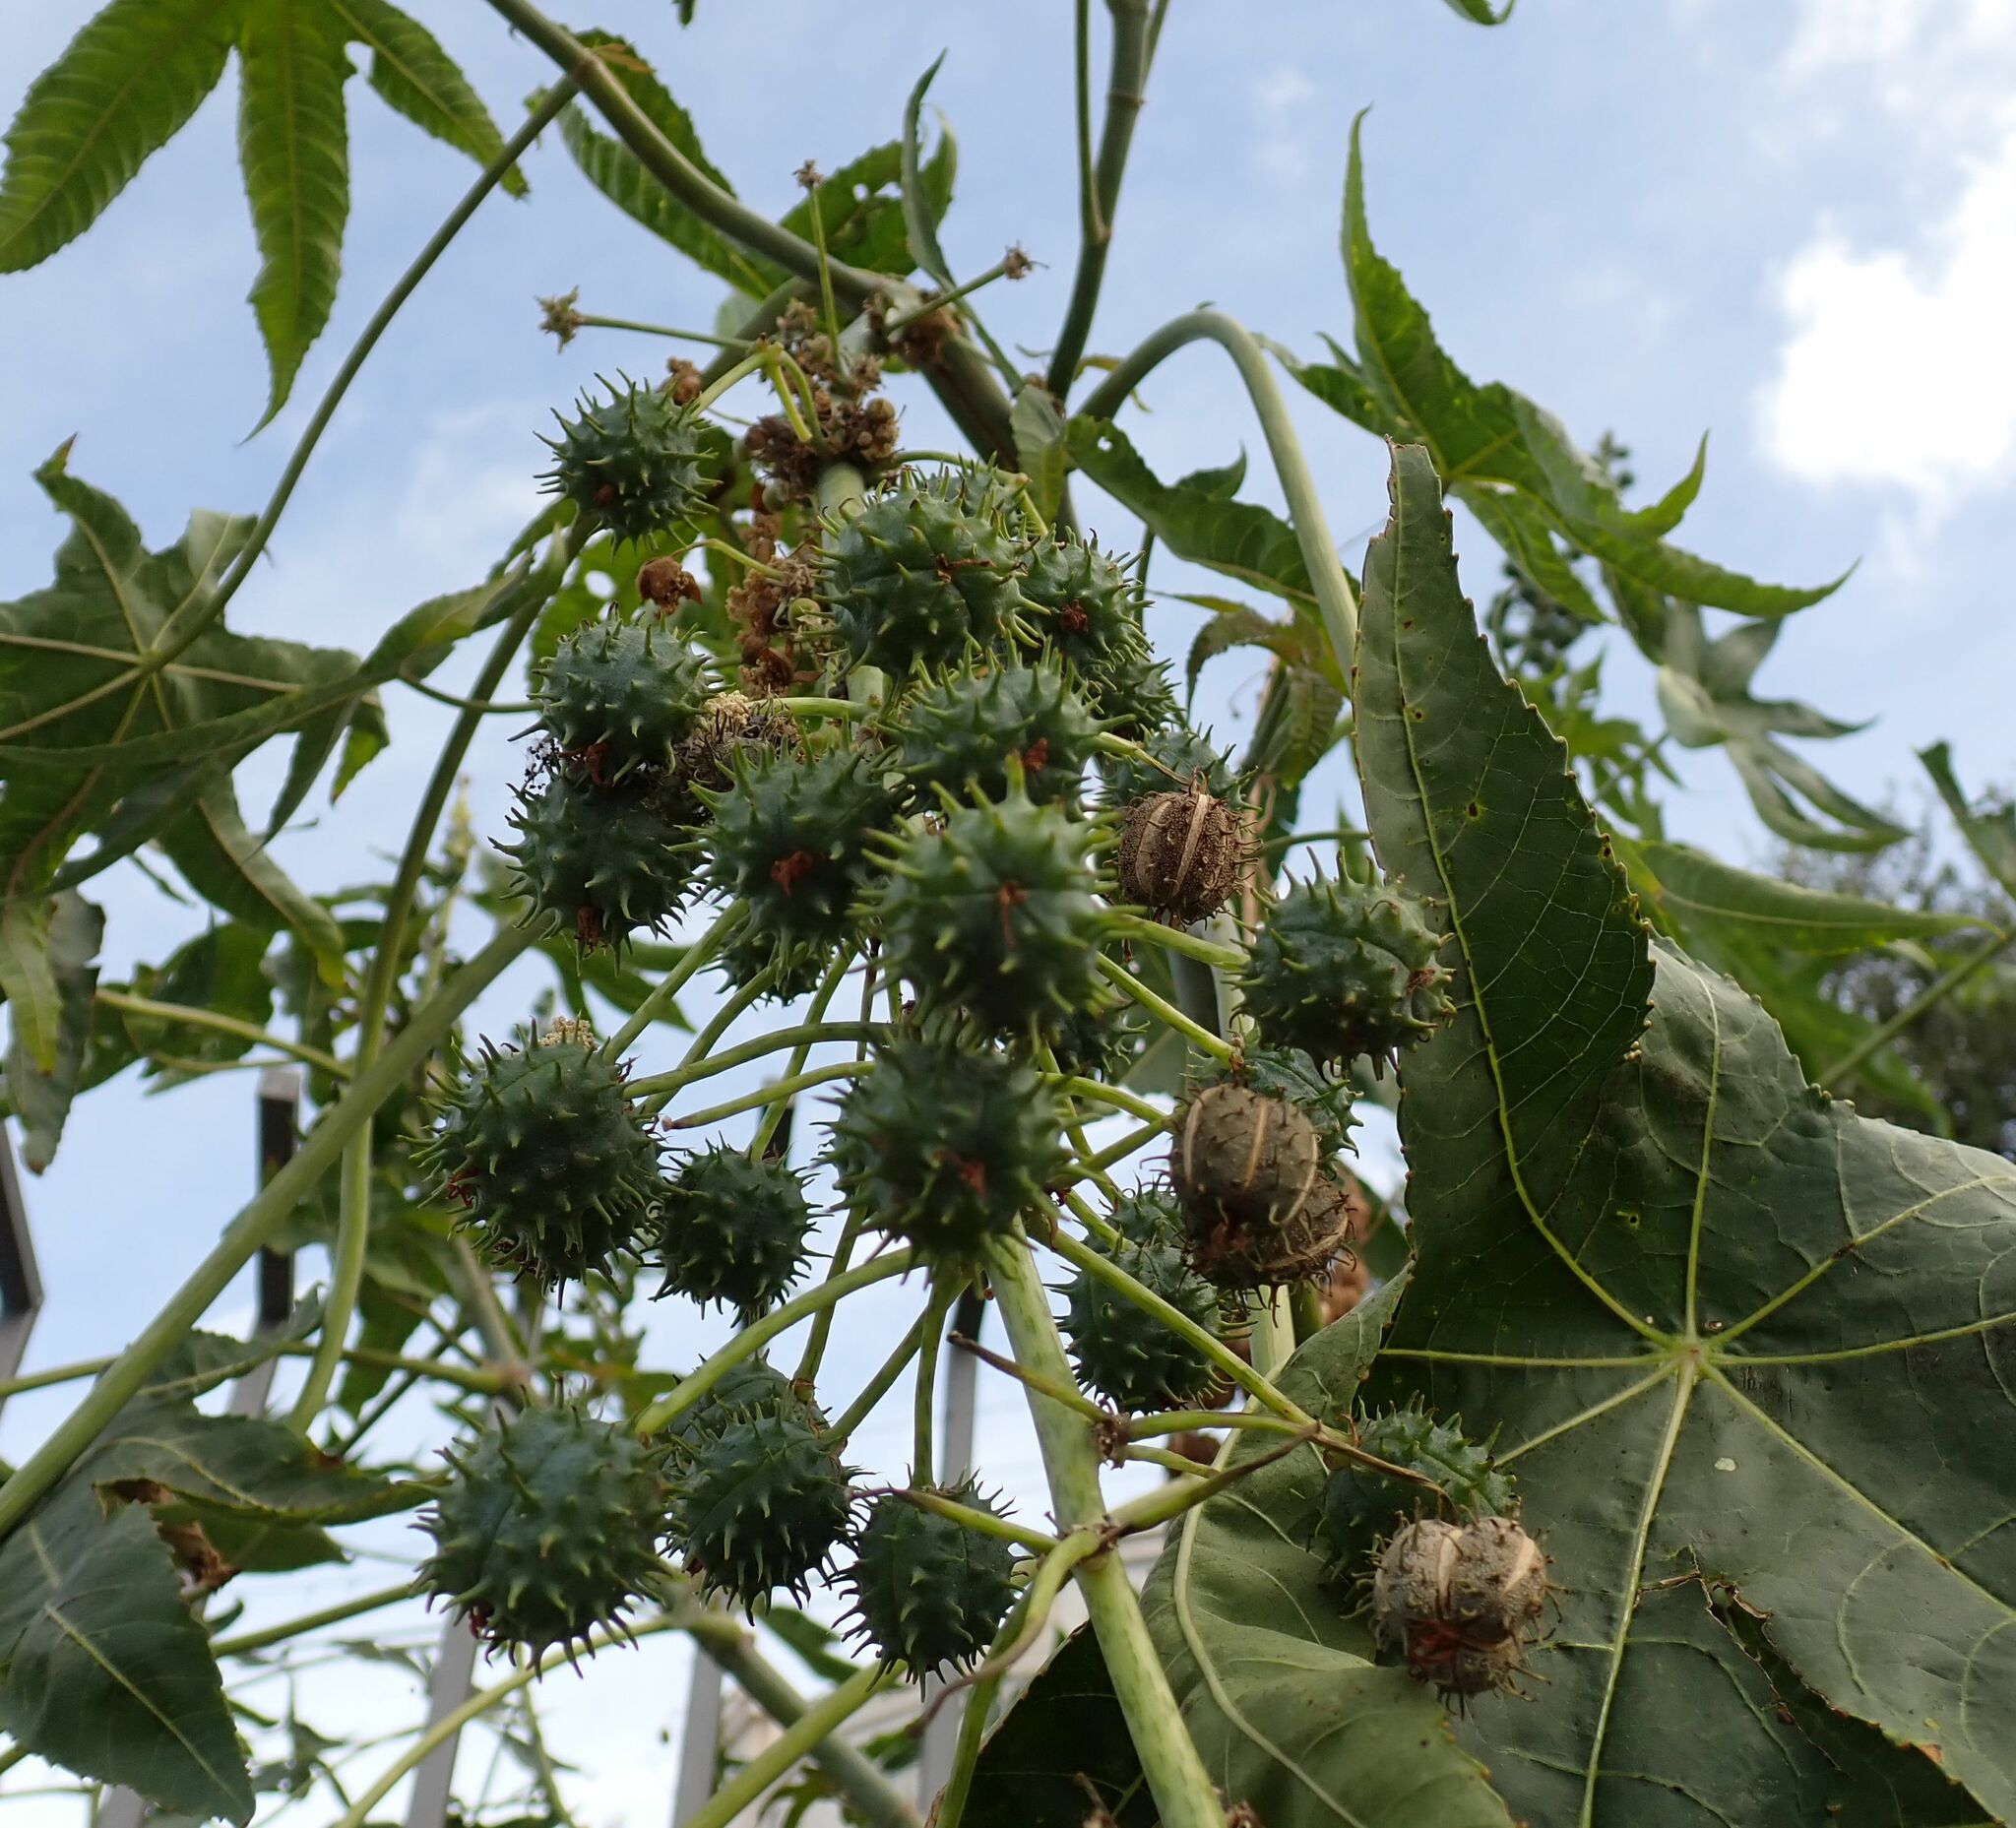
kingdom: Plantae
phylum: Tracheophyta
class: Magnoliopsida
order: Malpighiales
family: Euphorbiaceae
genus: Ricinus
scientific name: Ricinus communis
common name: Castor-oil-plant
